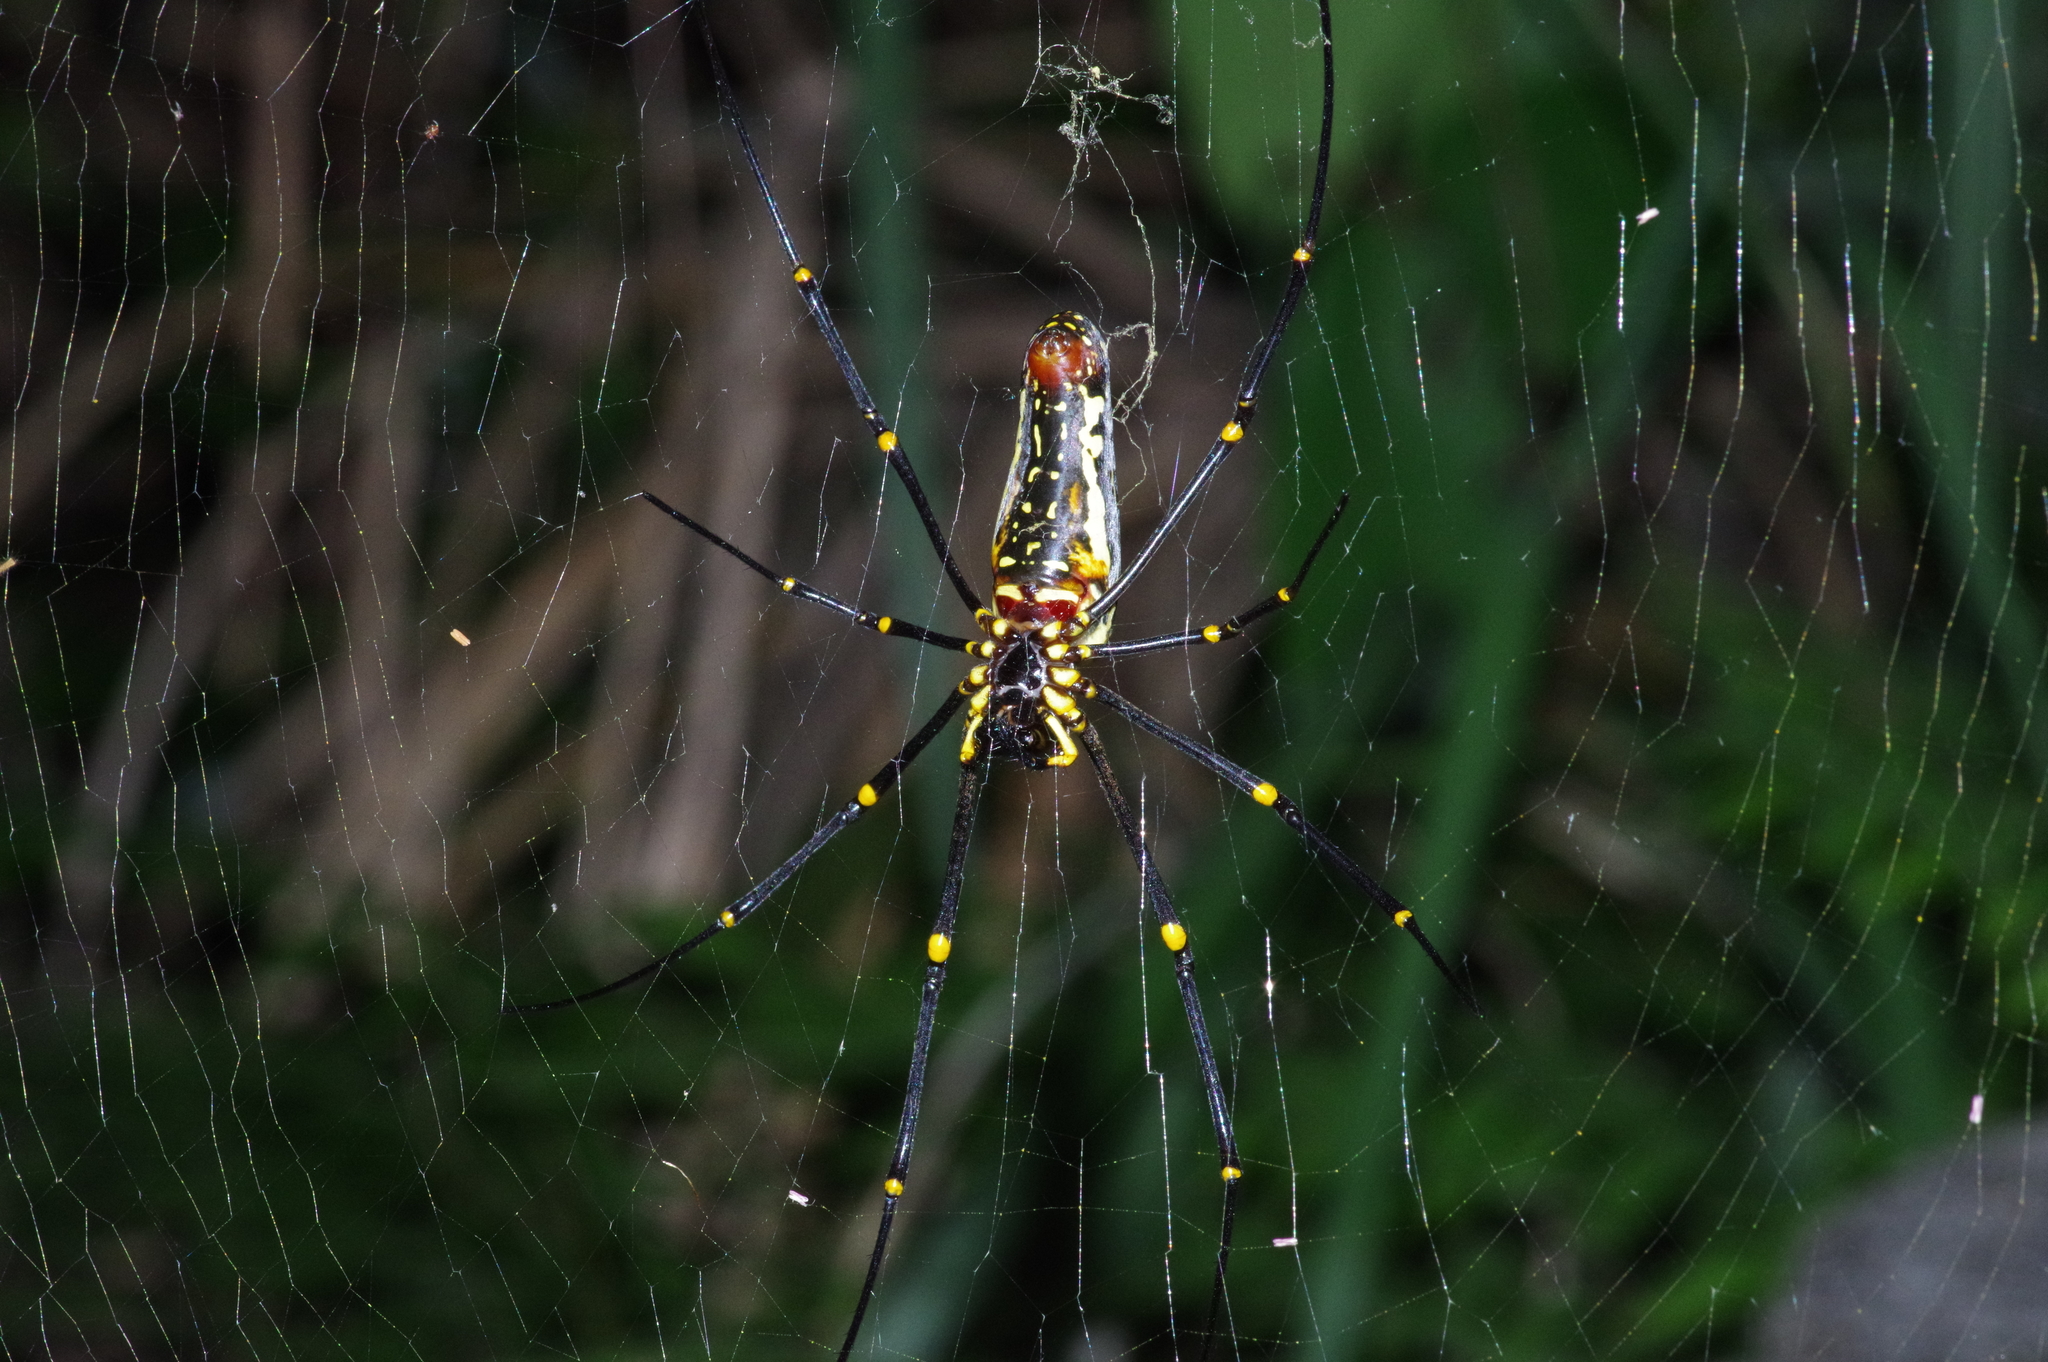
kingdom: Animalia
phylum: Arthropoda
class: Arachnida
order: Araneae
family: Araneidae
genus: Nephila
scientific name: Nephila pilipes
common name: Giant golden orb weaver
